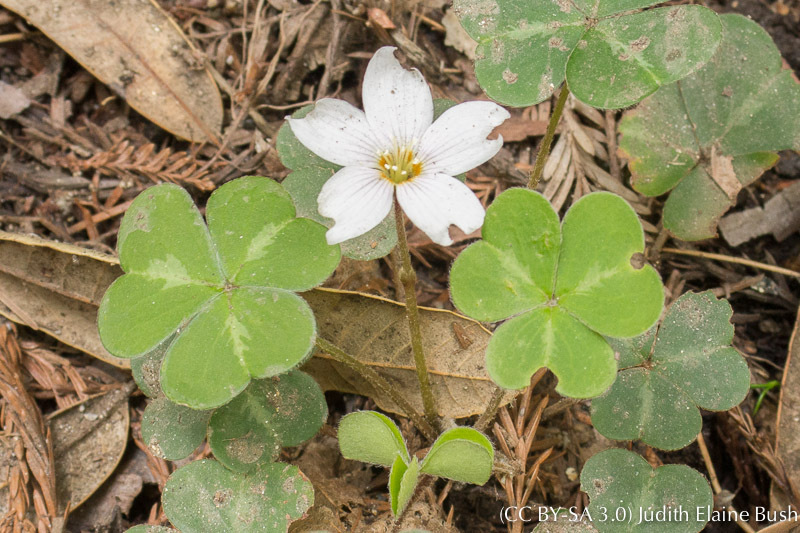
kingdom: Plantae
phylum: Tracheophyta
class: Magnoliopsida
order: Oxalidales
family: Oxalidaceae
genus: Oxalis
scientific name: Oxalis oregana
